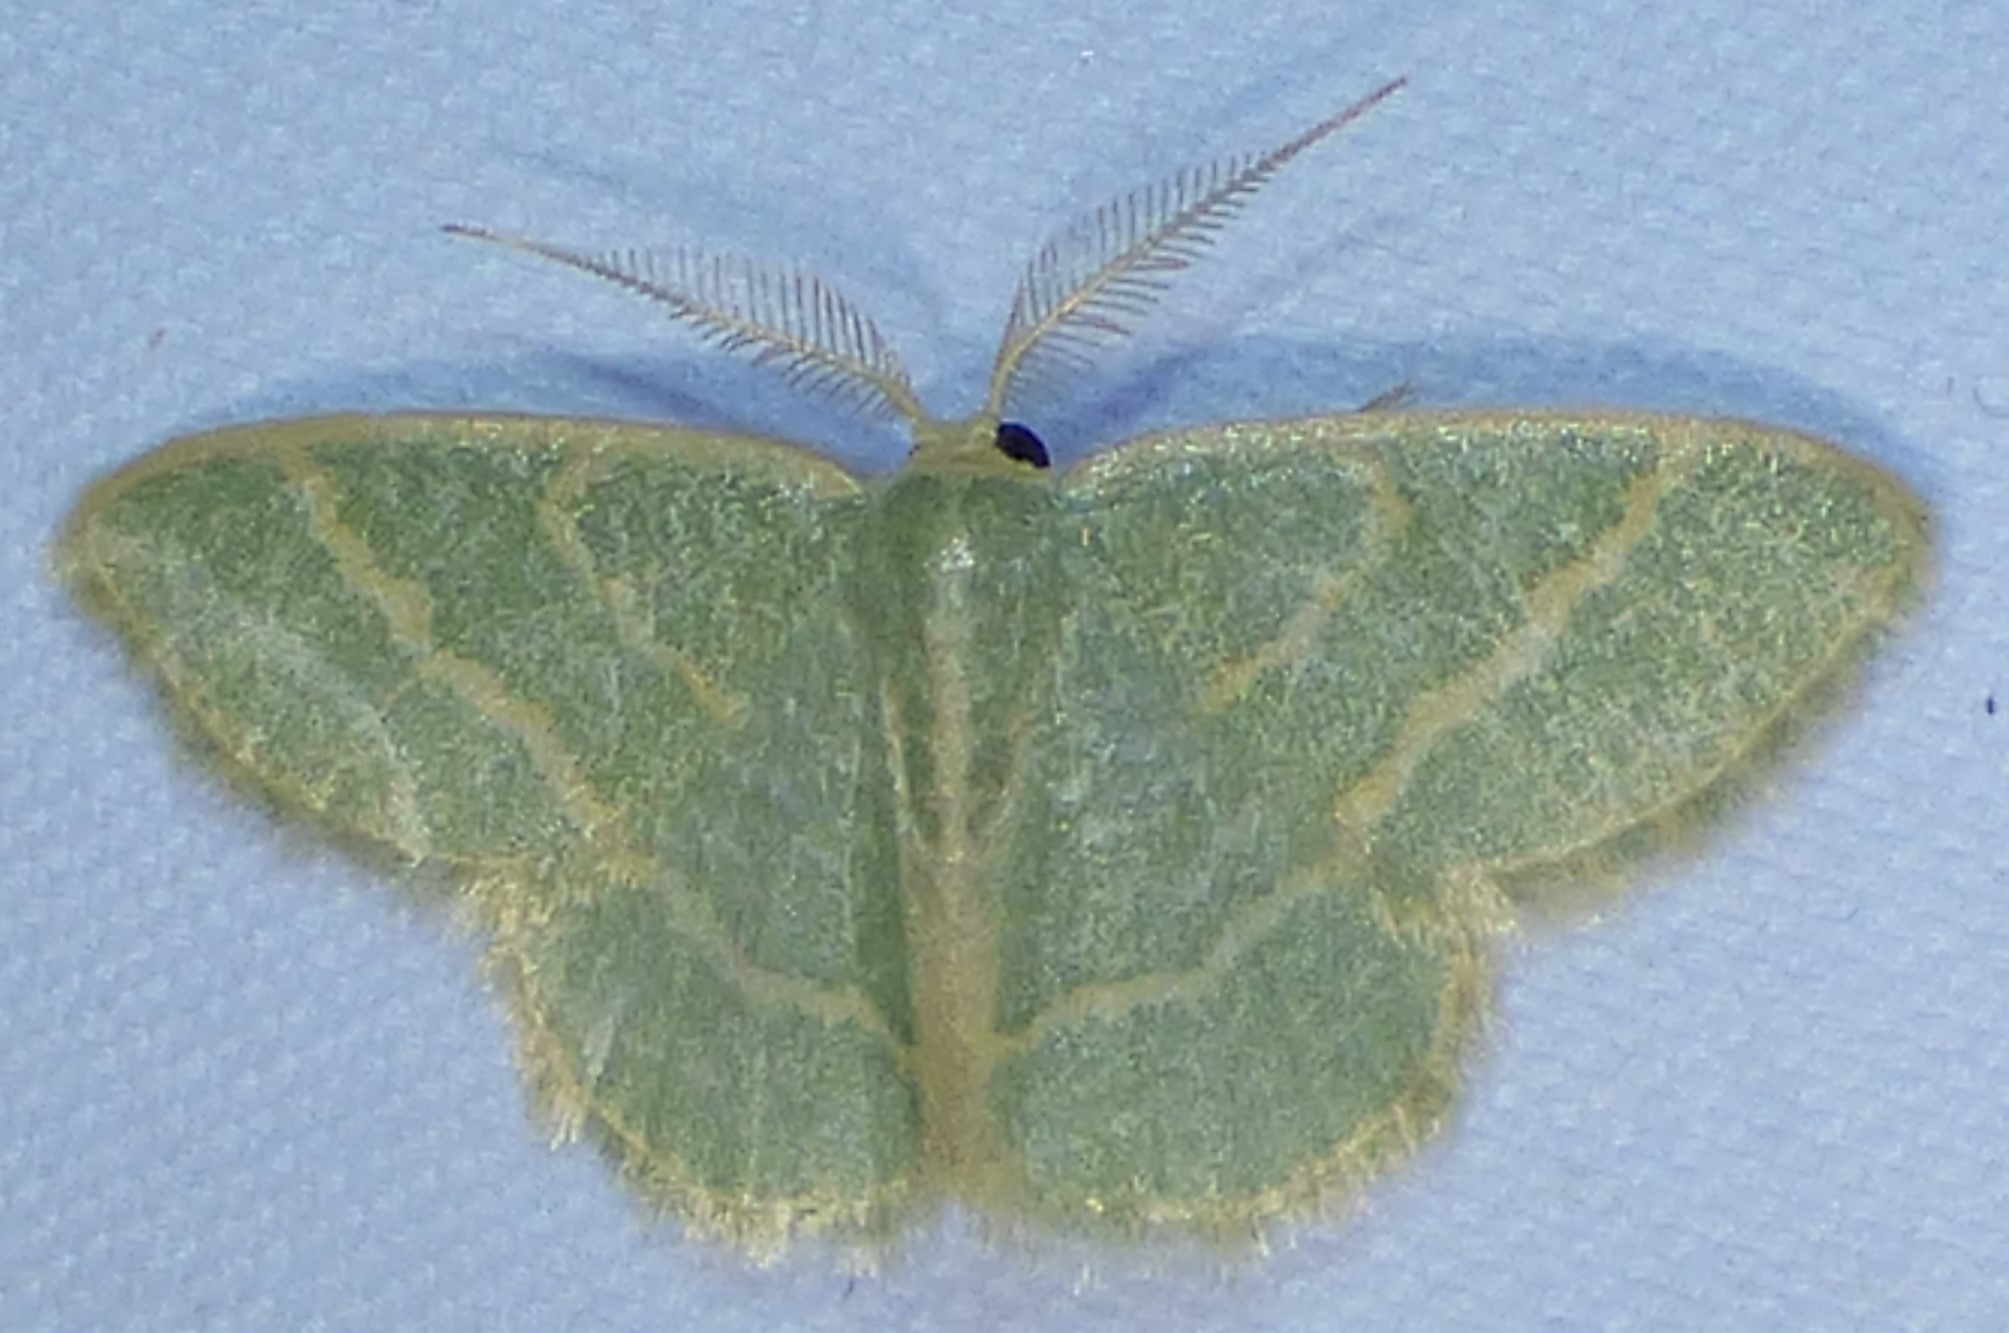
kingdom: Animalia
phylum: Arthropoda
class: Insecta
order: Lepidoptera
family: Geometridae
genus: Chlorochlamys
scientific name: Chlorochlamys chloroleucaria
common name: Blackberry looper
